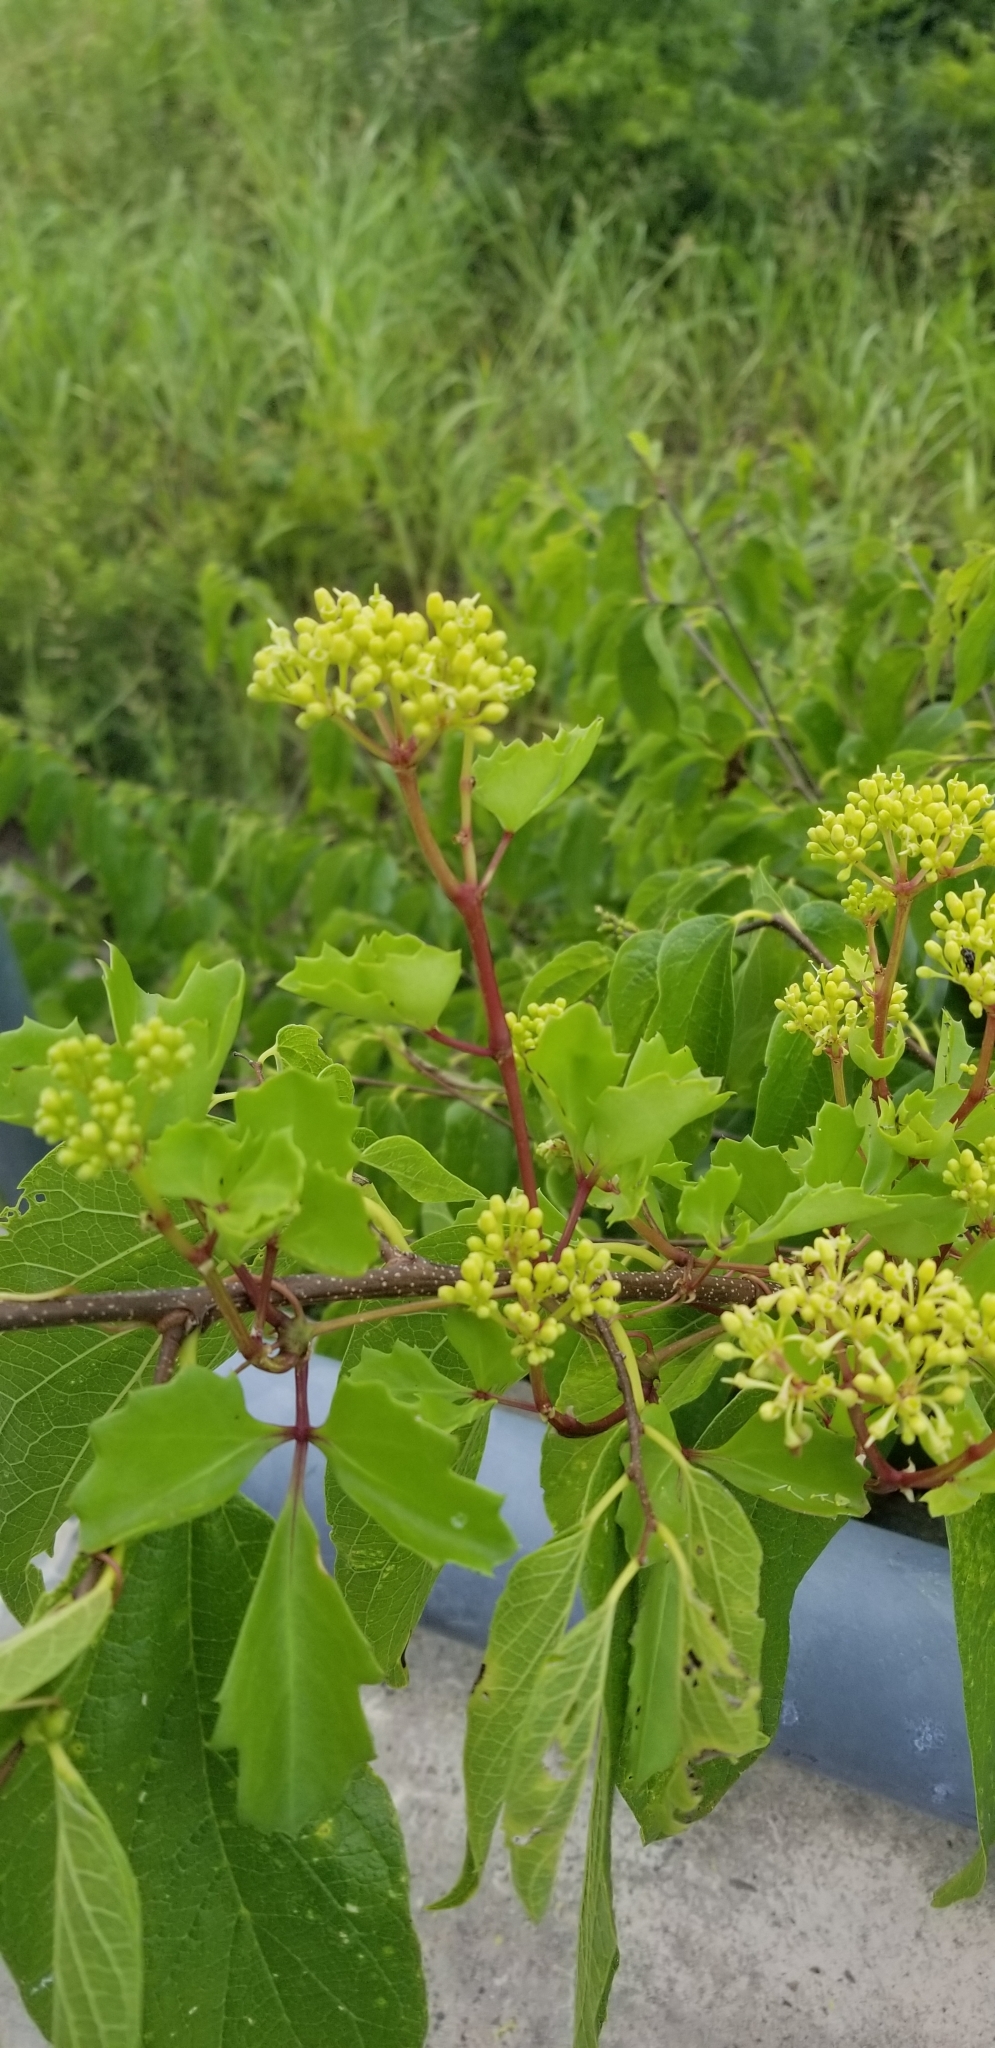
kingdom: Plantae
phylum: Tracheophyta
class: Magnoliopsida
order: Vitales
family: Vitaceae
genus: Cissus
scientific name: Cissus trifoliata
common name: Vine-sorrel
